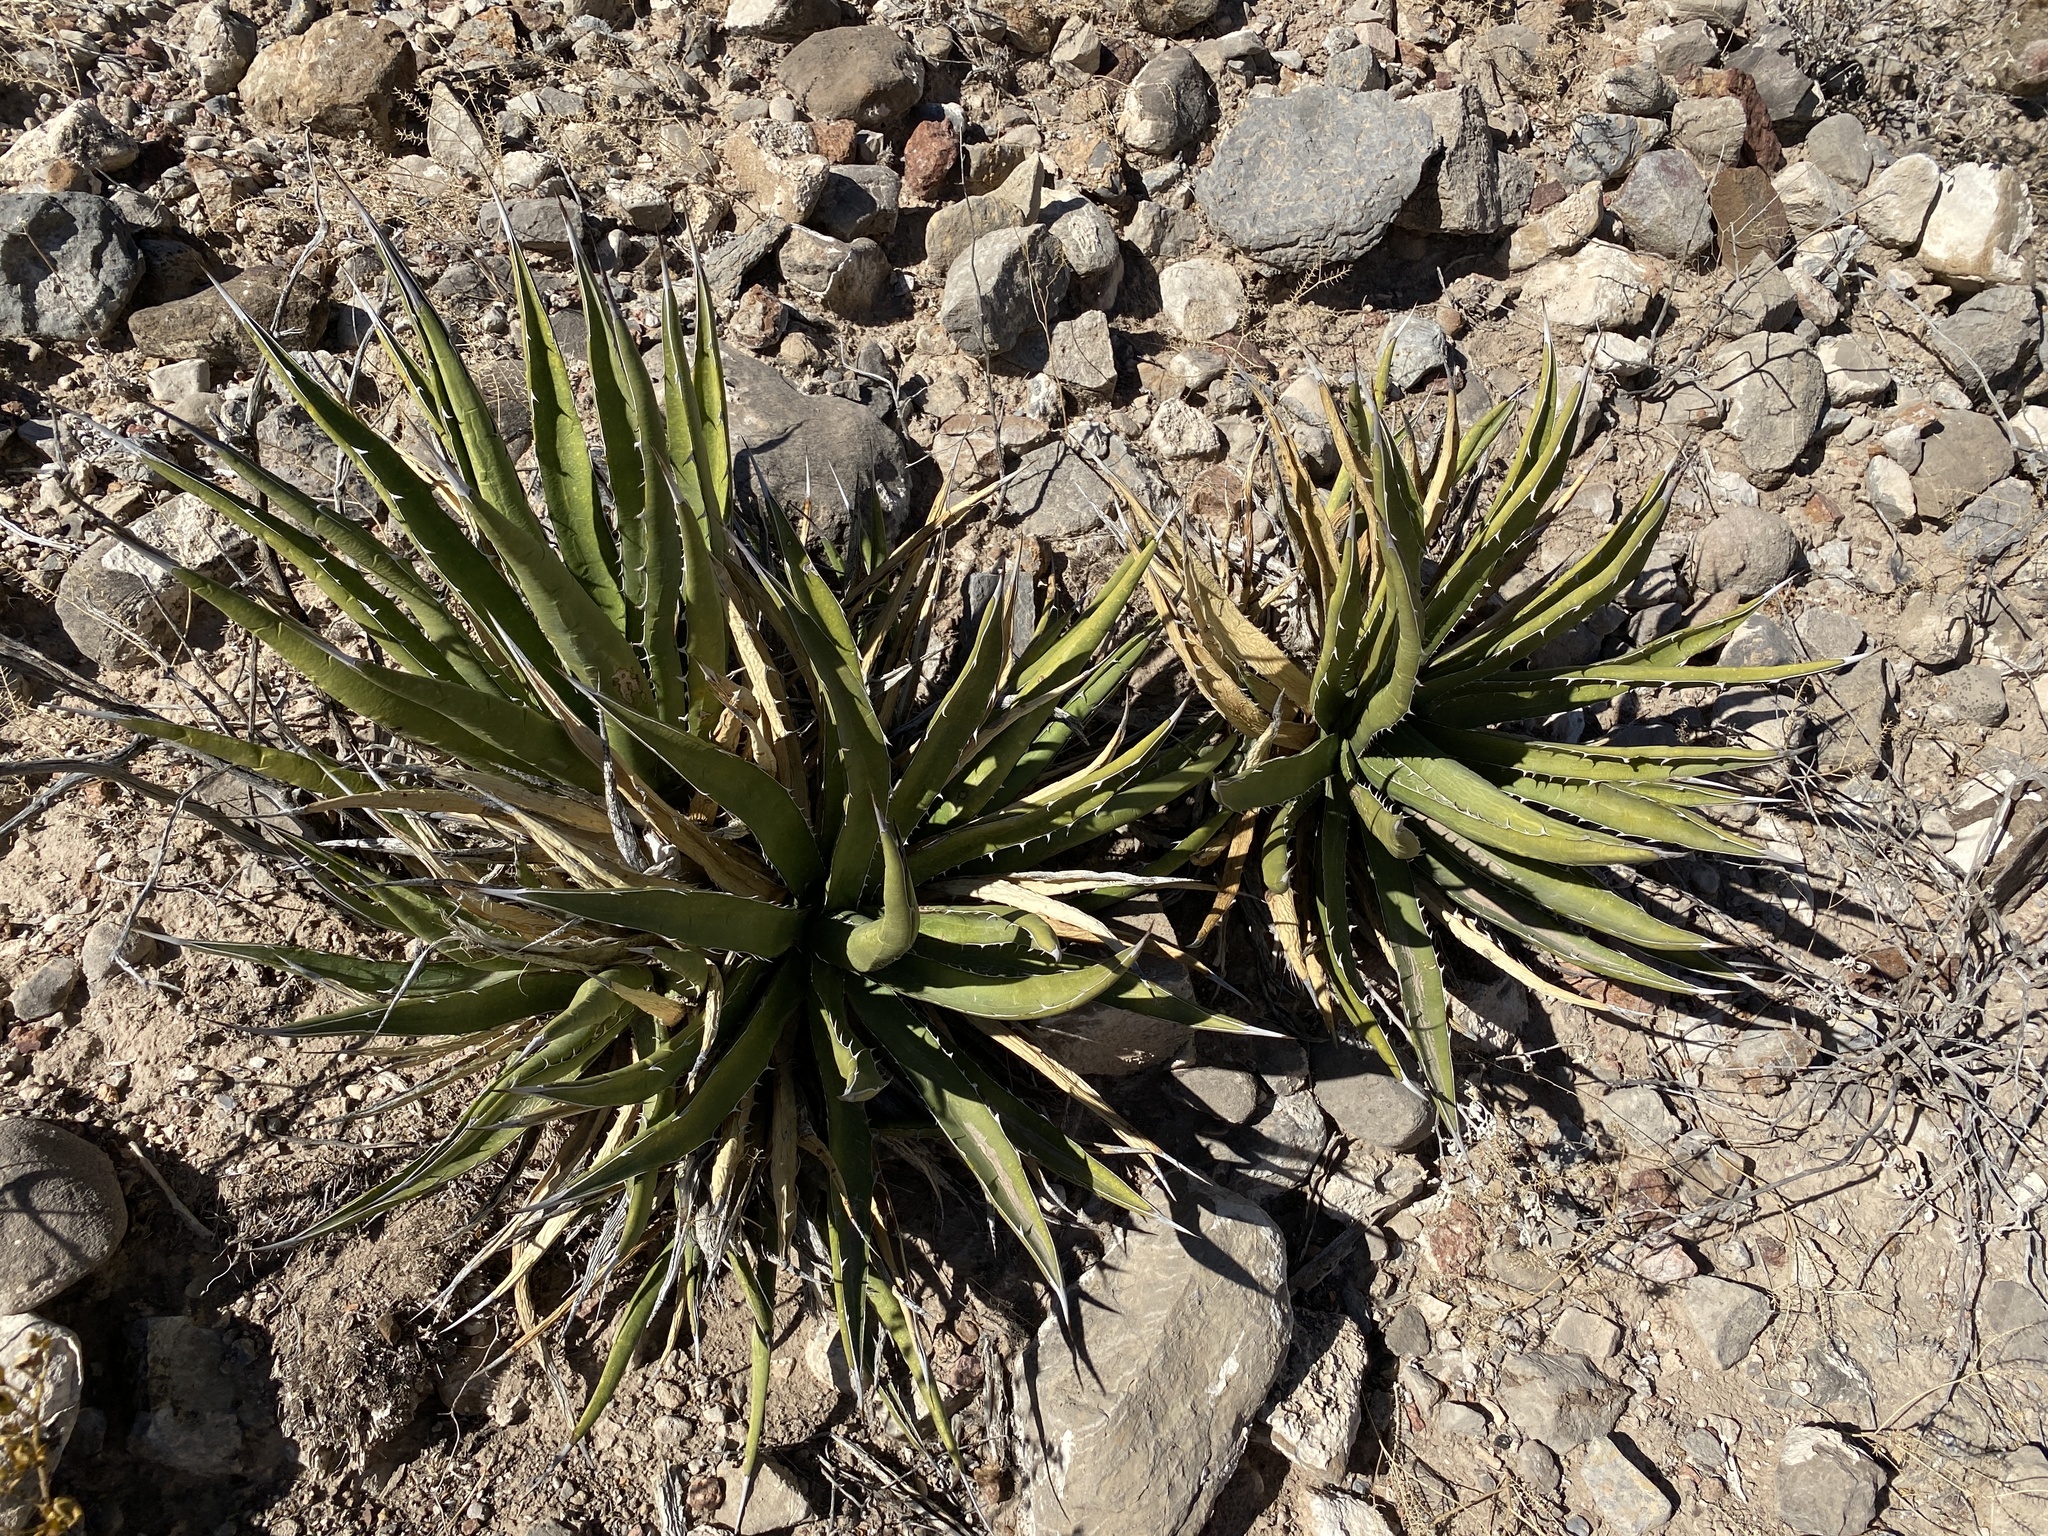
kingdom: Plantae
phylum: Tracheophyta
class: Liliopsida
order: Asparagales
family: Asparagaceae
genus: Agave
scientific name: Agave lechuguilla
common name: Lecheguilla agave
